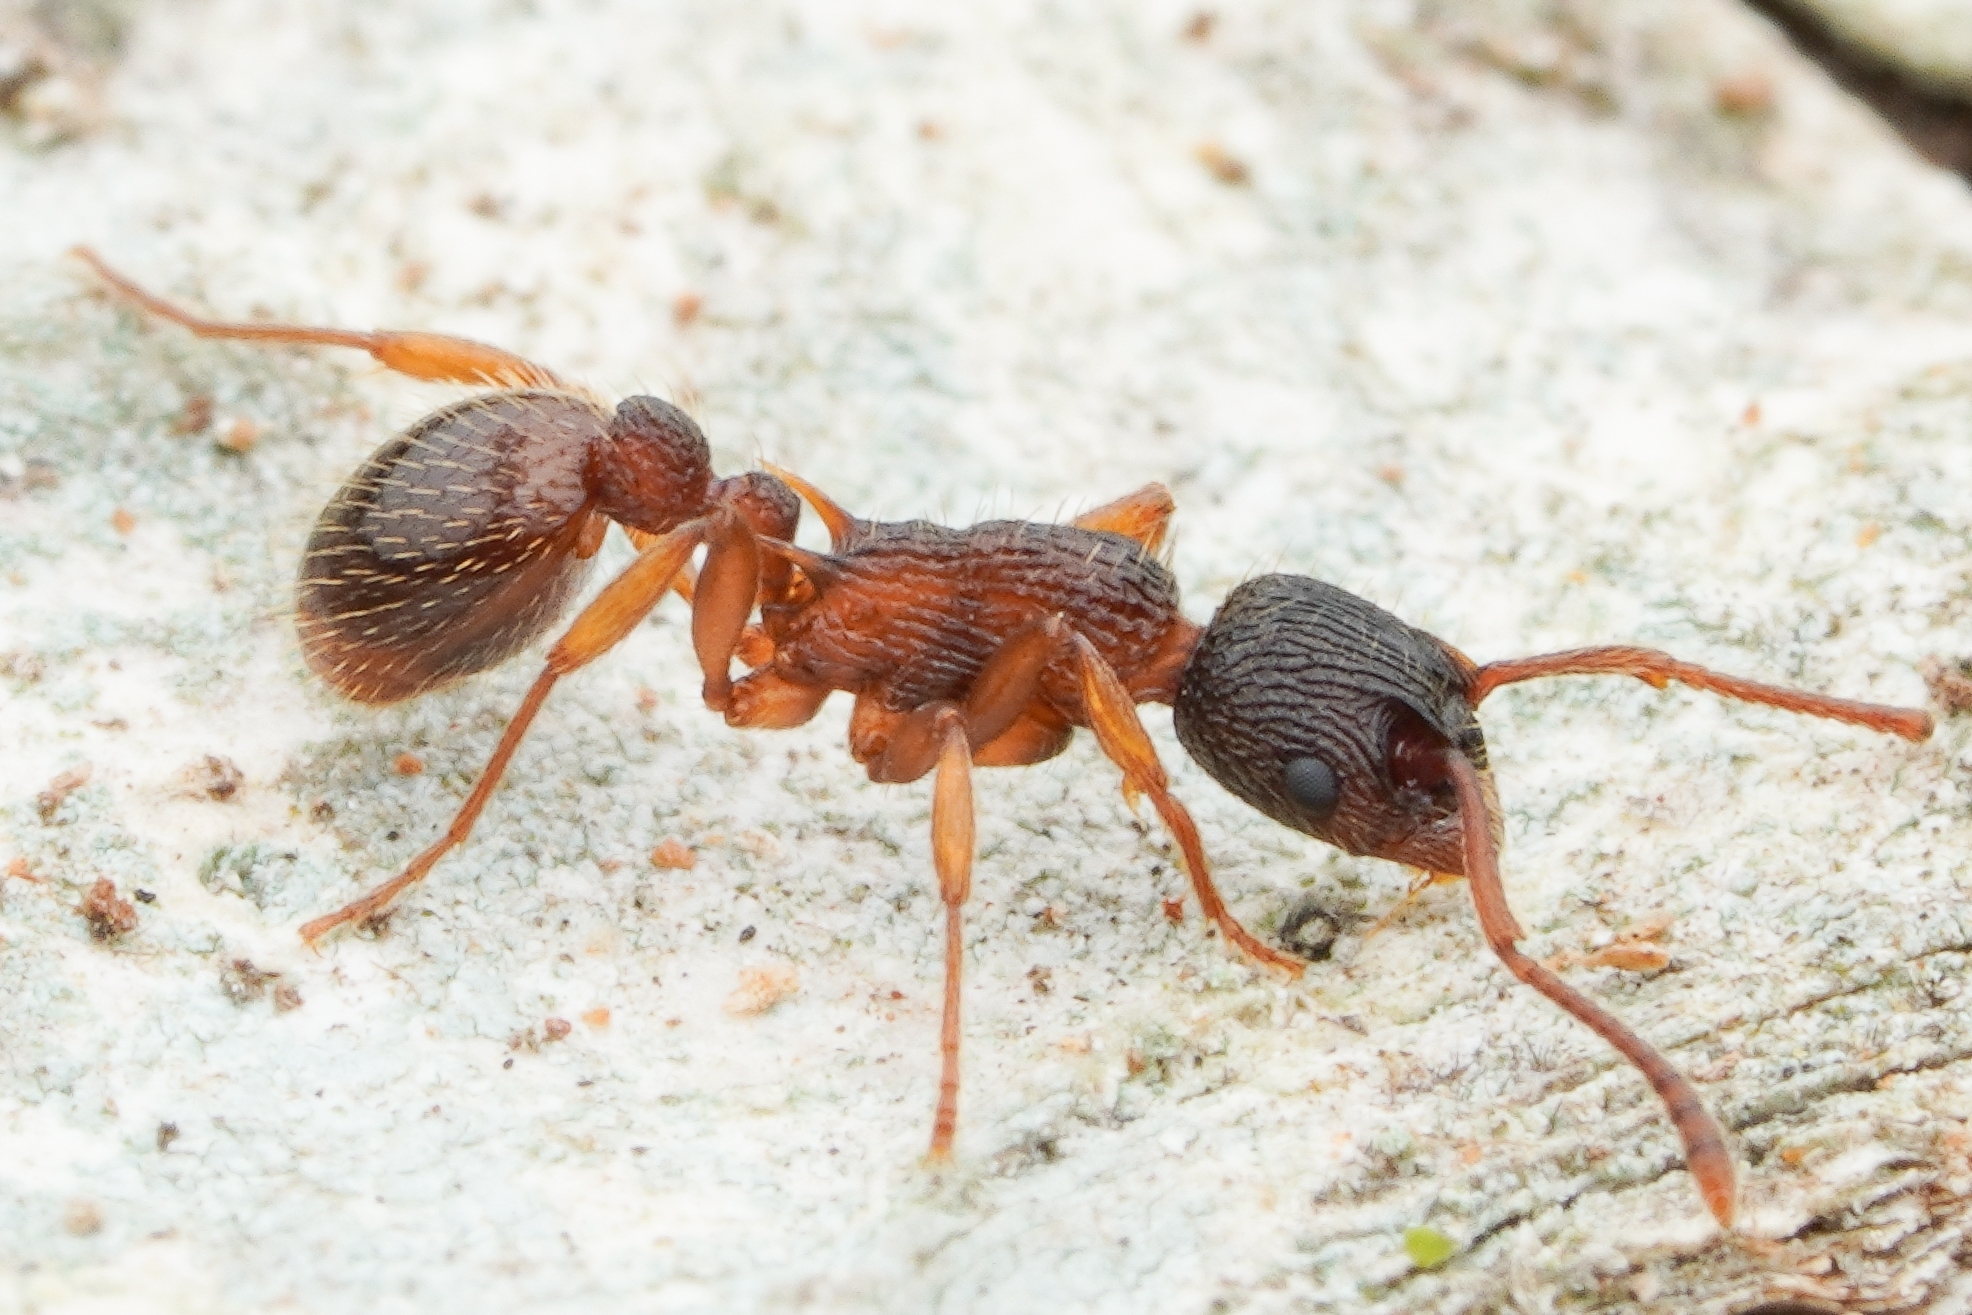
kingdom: Animalia
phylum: Arthropoda
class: Insecta
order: Hymenoptera
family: Formicidae
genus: Myrmica
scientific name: Myrmica ademonia
